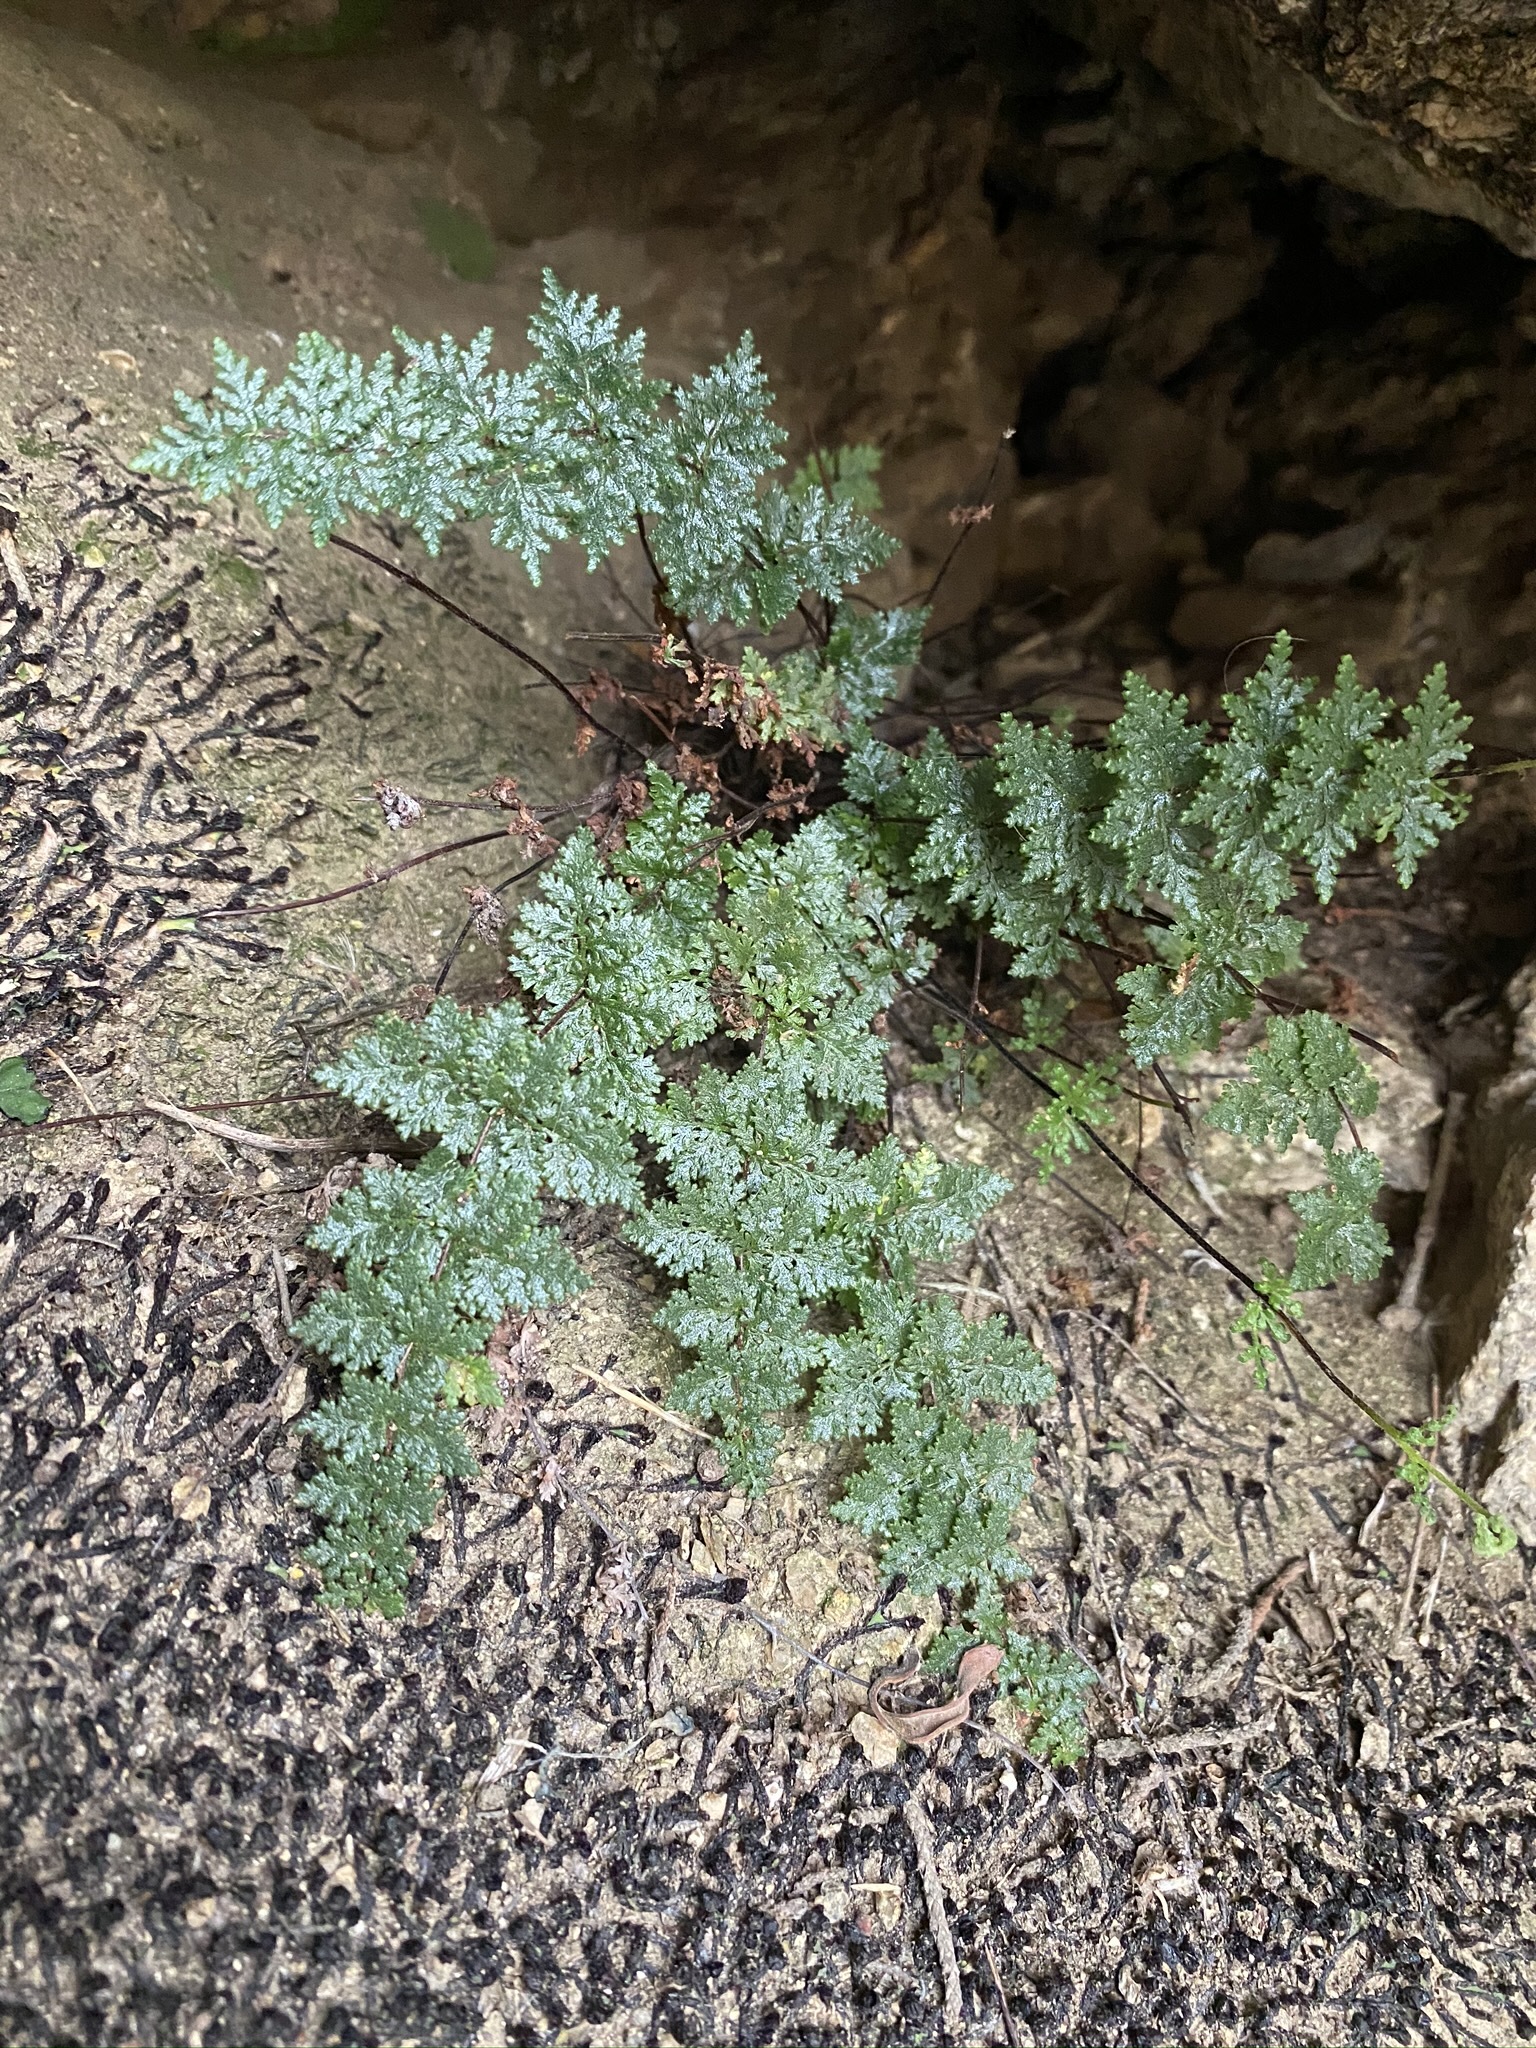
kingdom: Plantae
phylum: Tracheophyta
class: Polypodiopsida
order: Polypodiales
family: Pteridaceae
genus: Myriopteris
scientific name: Myriopteris viscida
